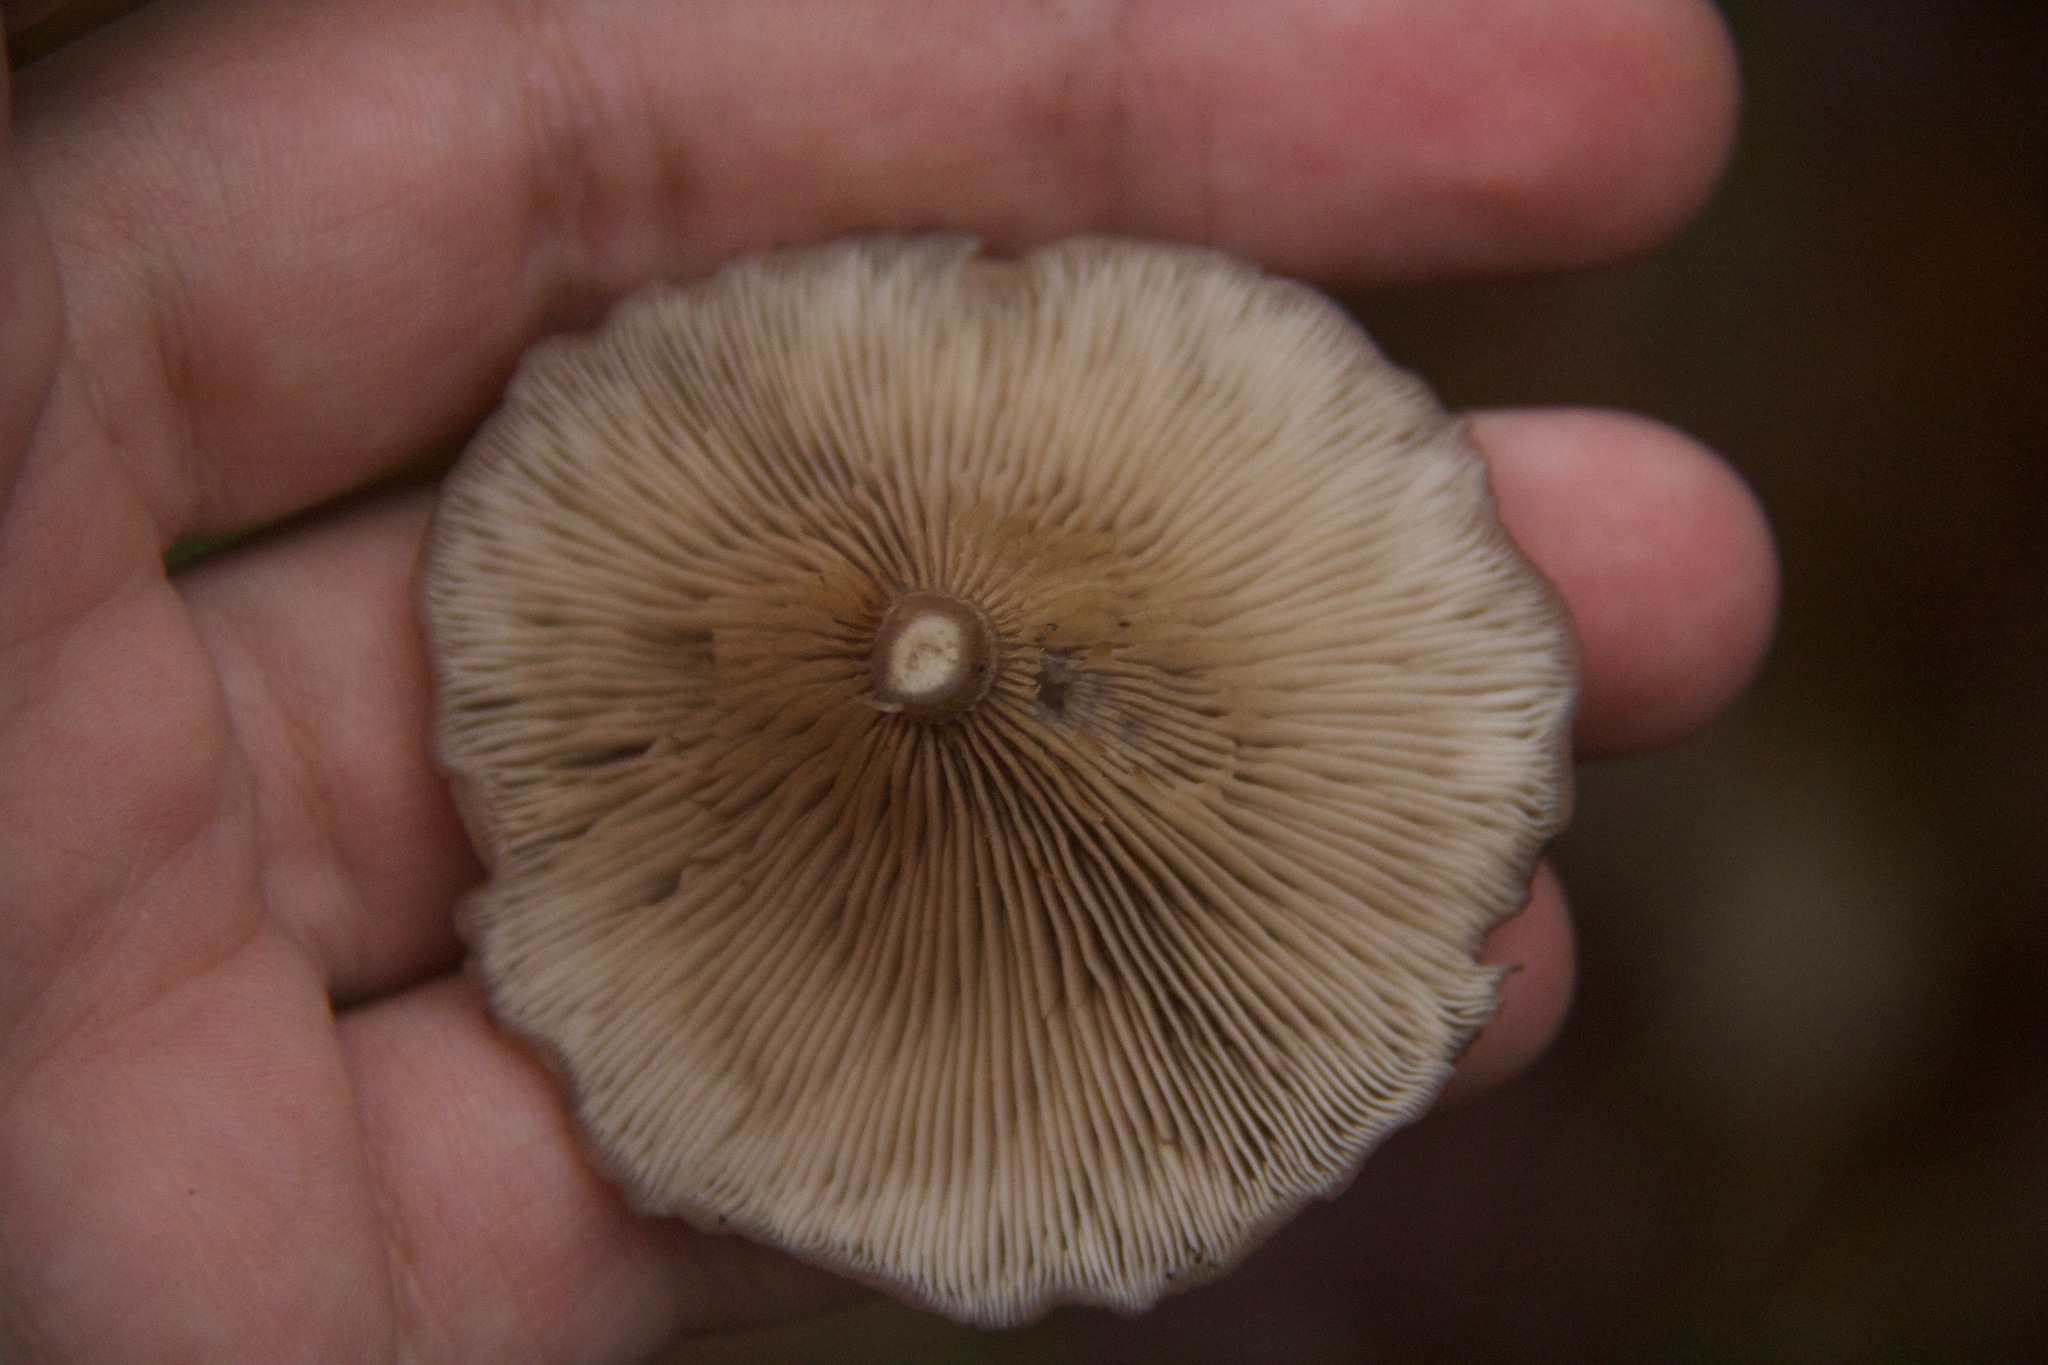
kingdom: Fungi
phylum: Basidiomycota
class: Agaricomycetes
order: Agaricales
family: Pseudoclitocybaceae
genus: Pseudoclitocybe
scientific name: Pseudoclitocybe cyathiformis
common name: Goblet
